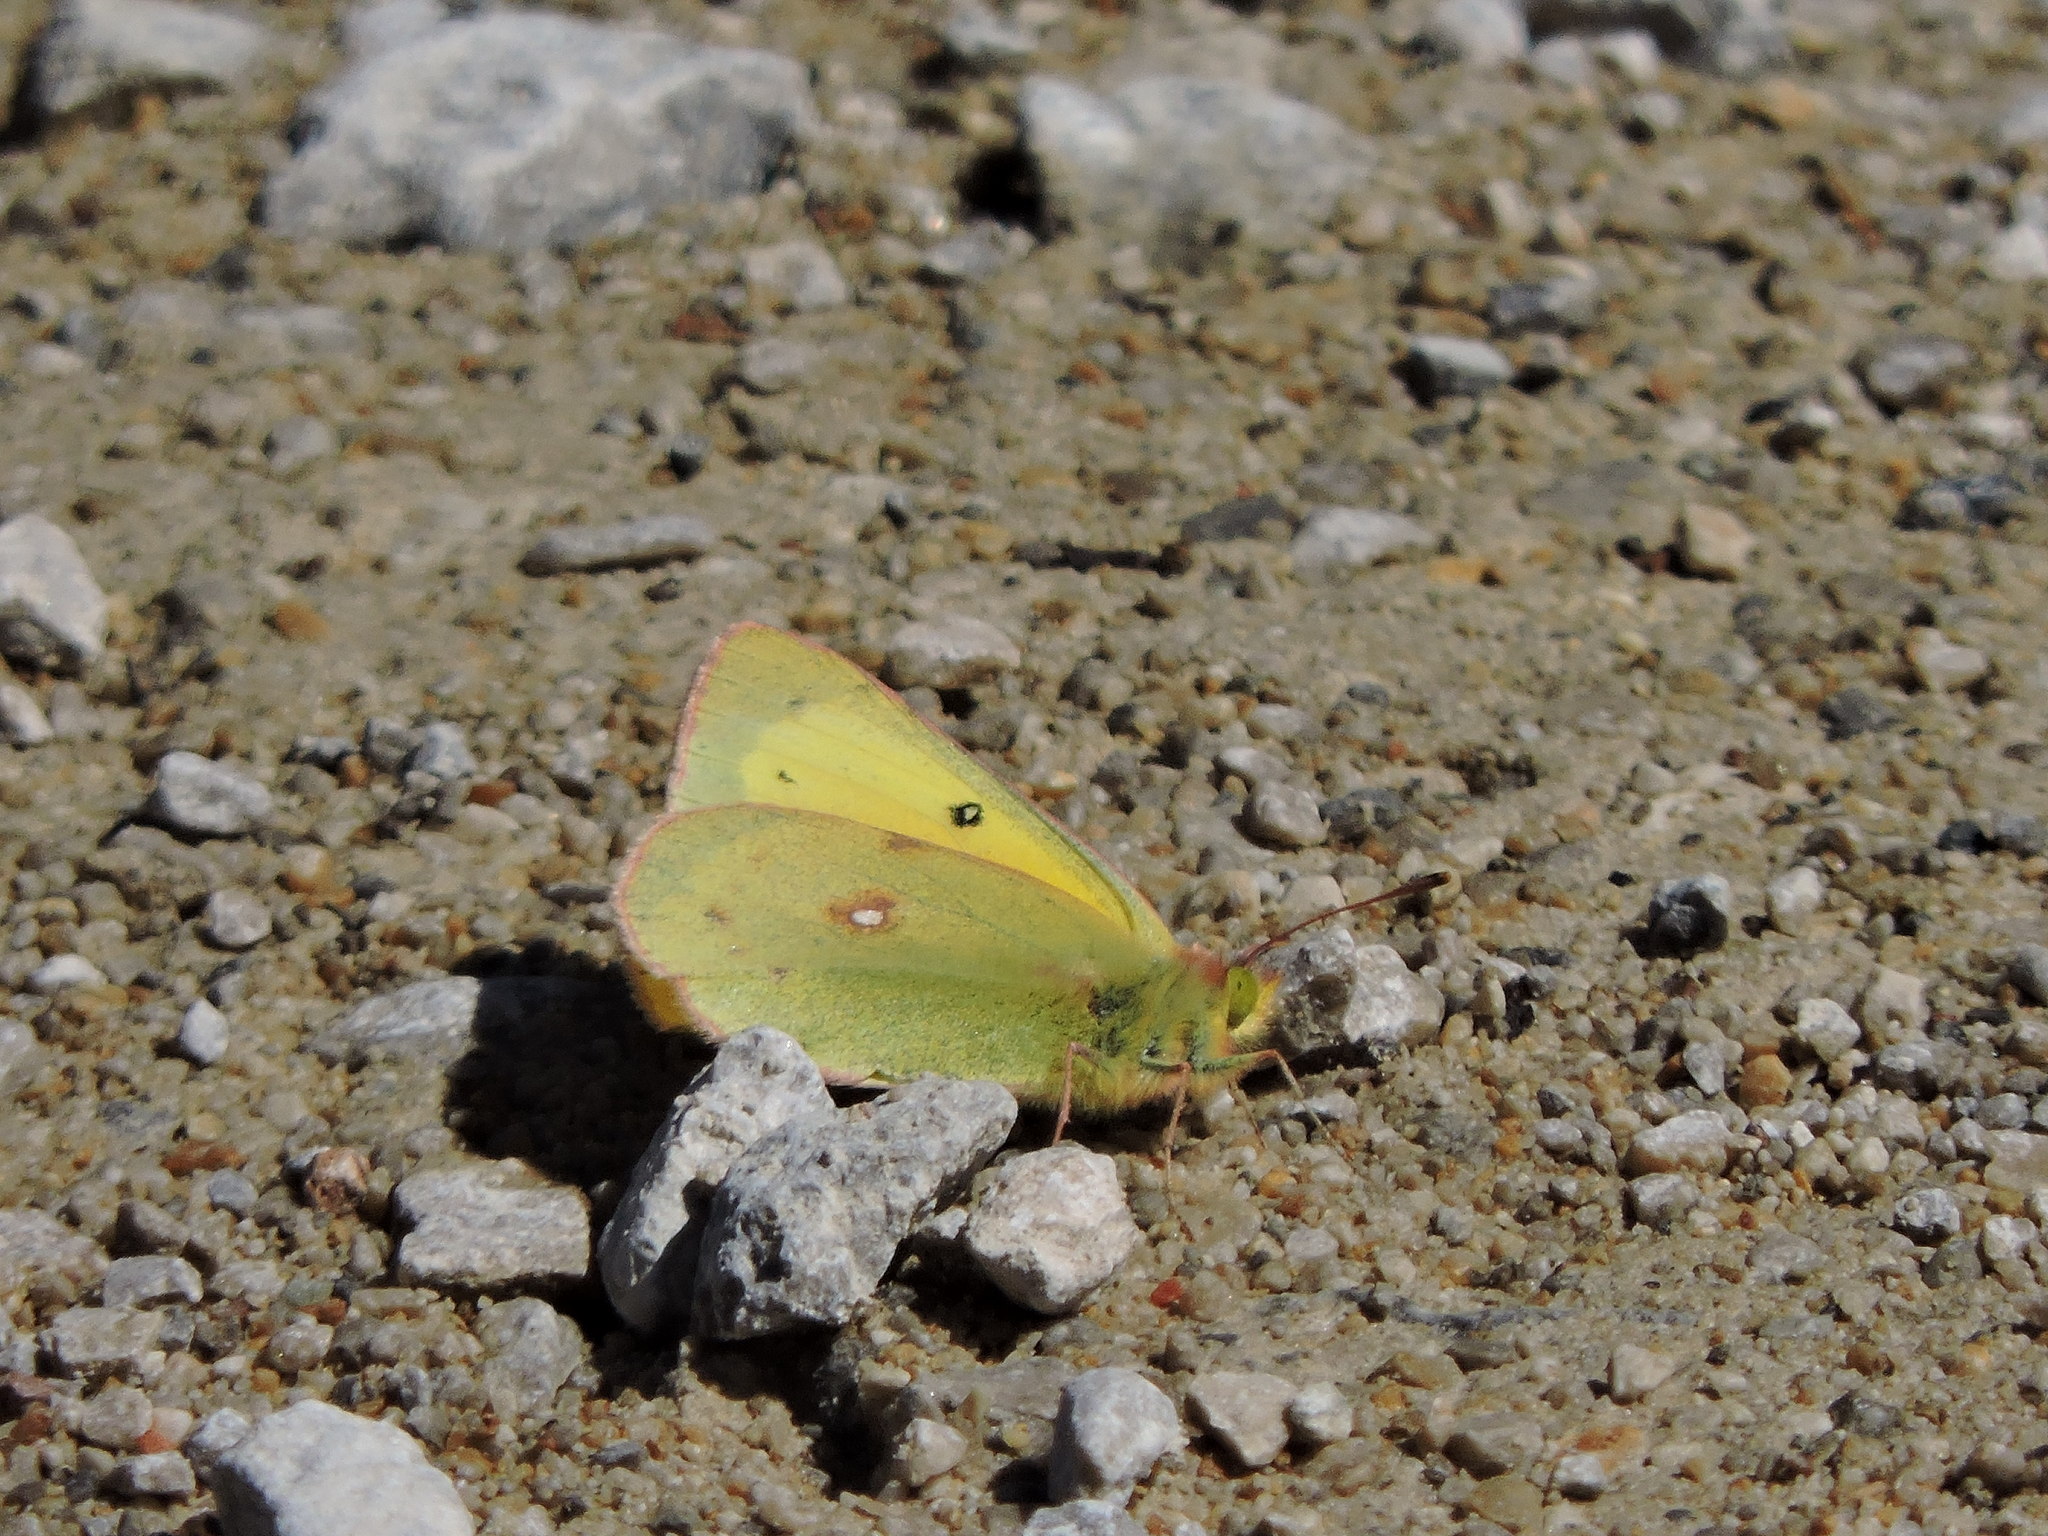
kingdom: Animalia
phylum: Arthropoda
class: Insecta
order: Lepidoptera
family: Pieridae
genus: Colias
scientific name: Colias eurytheme
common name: Alfalfa butterfly
